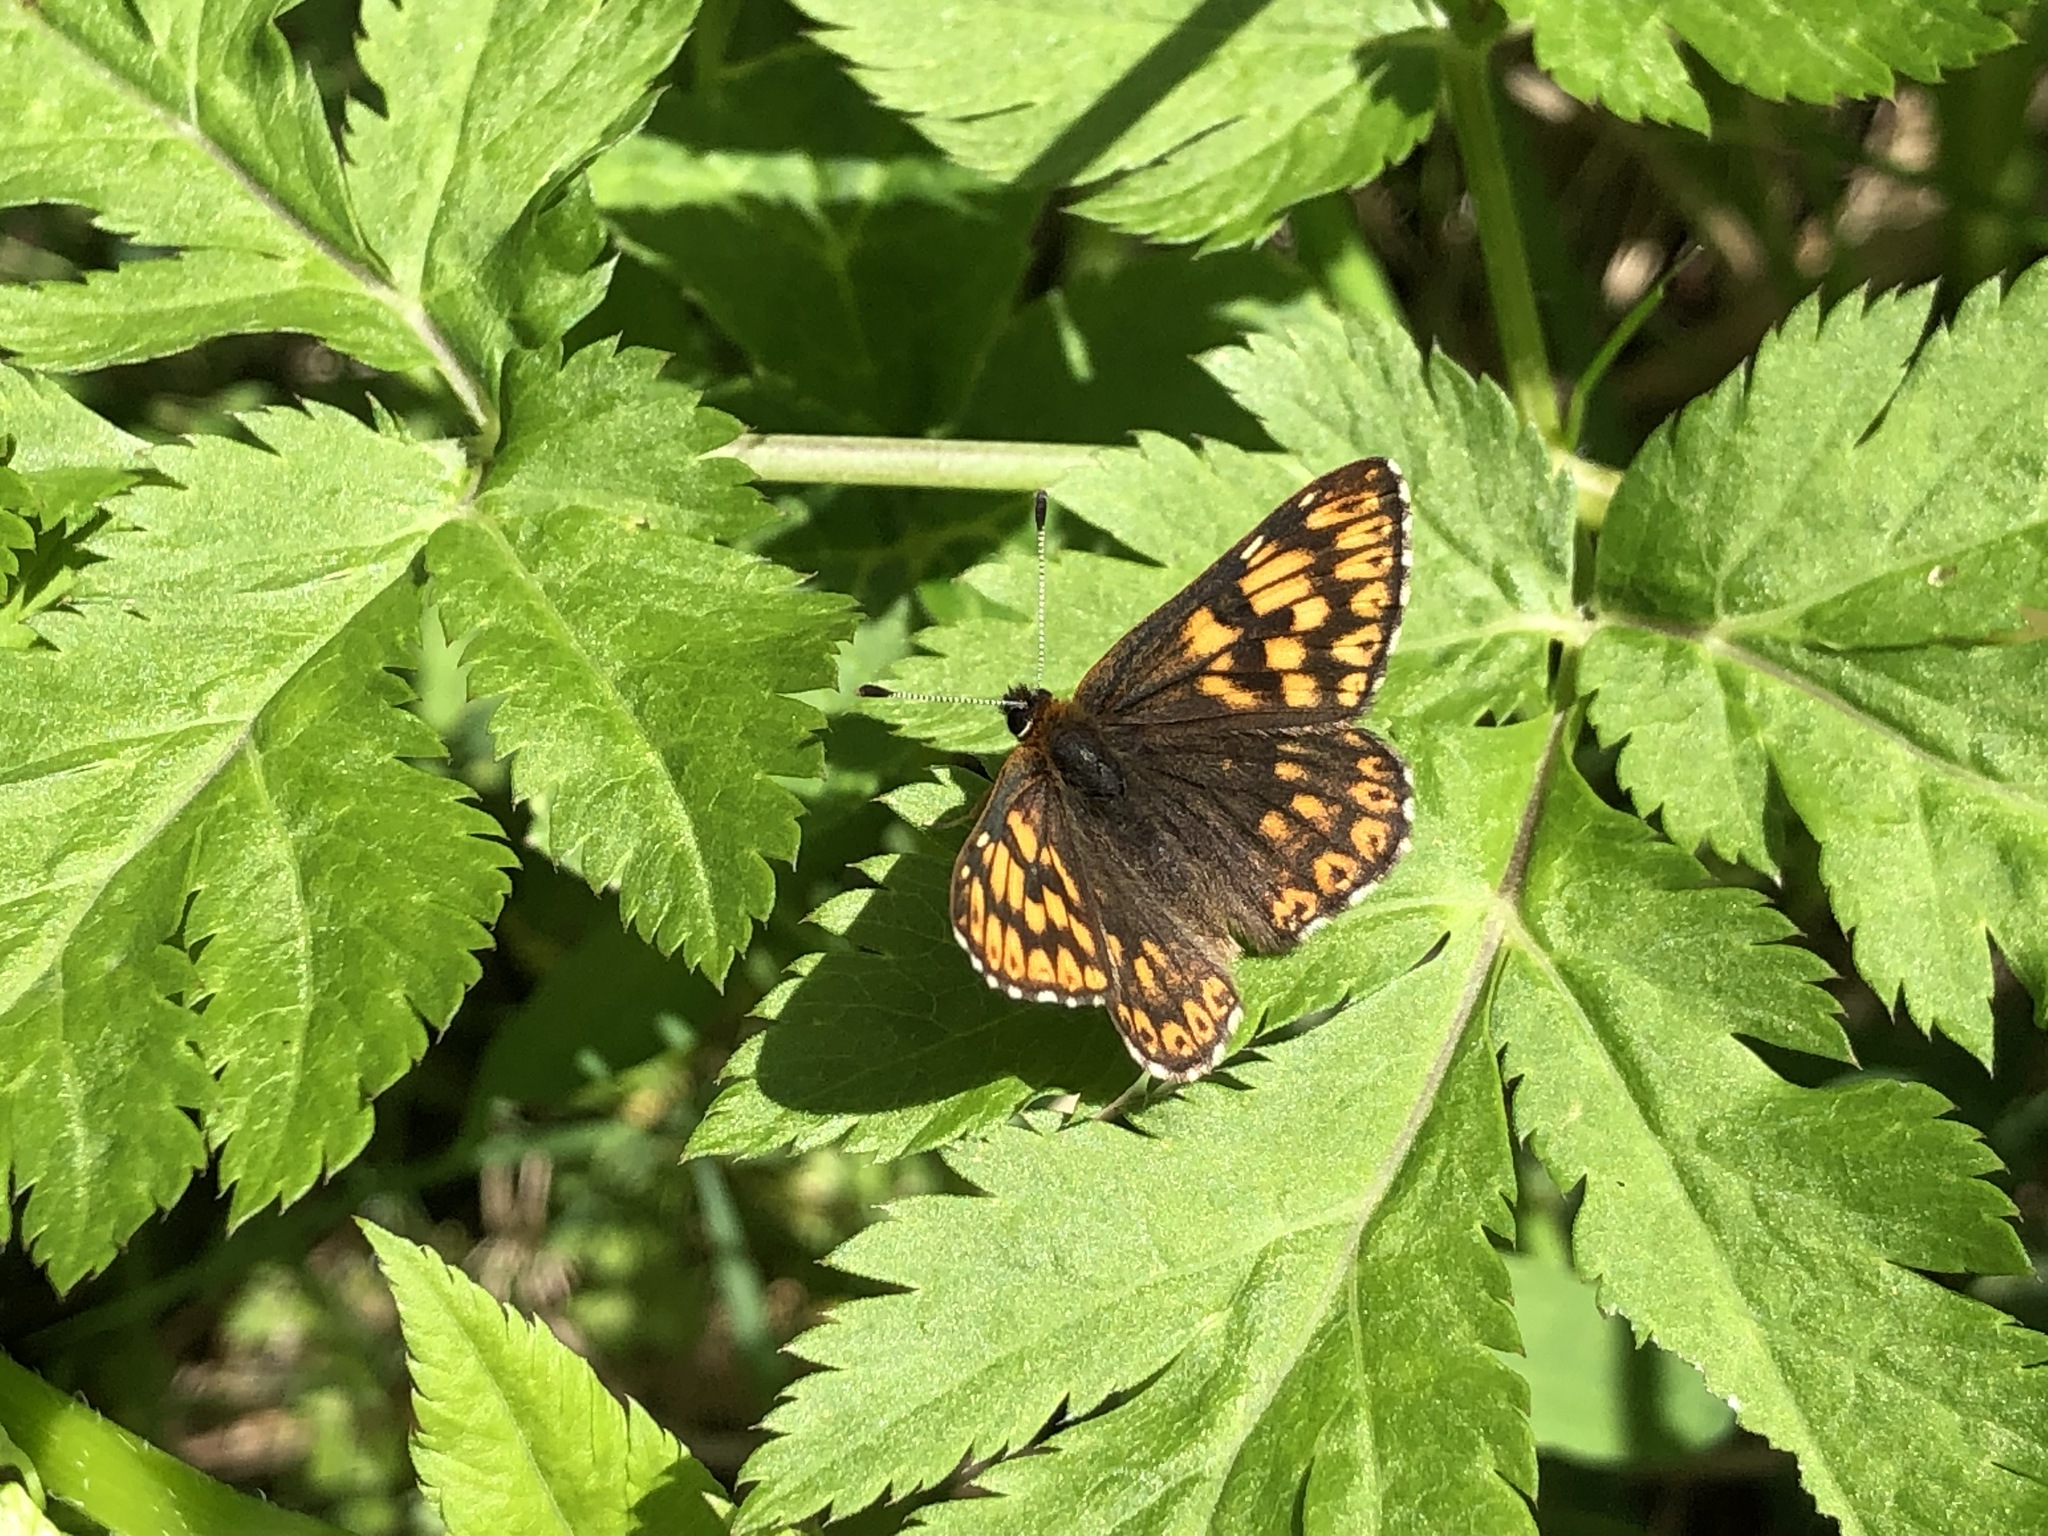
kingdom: Animalia
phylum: Arthropoda
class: Insecta
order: Lepidoptera
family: Riodinidae
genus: Hamearis
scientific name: Hamearis lucina
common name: Duke of burgundy fritillary
